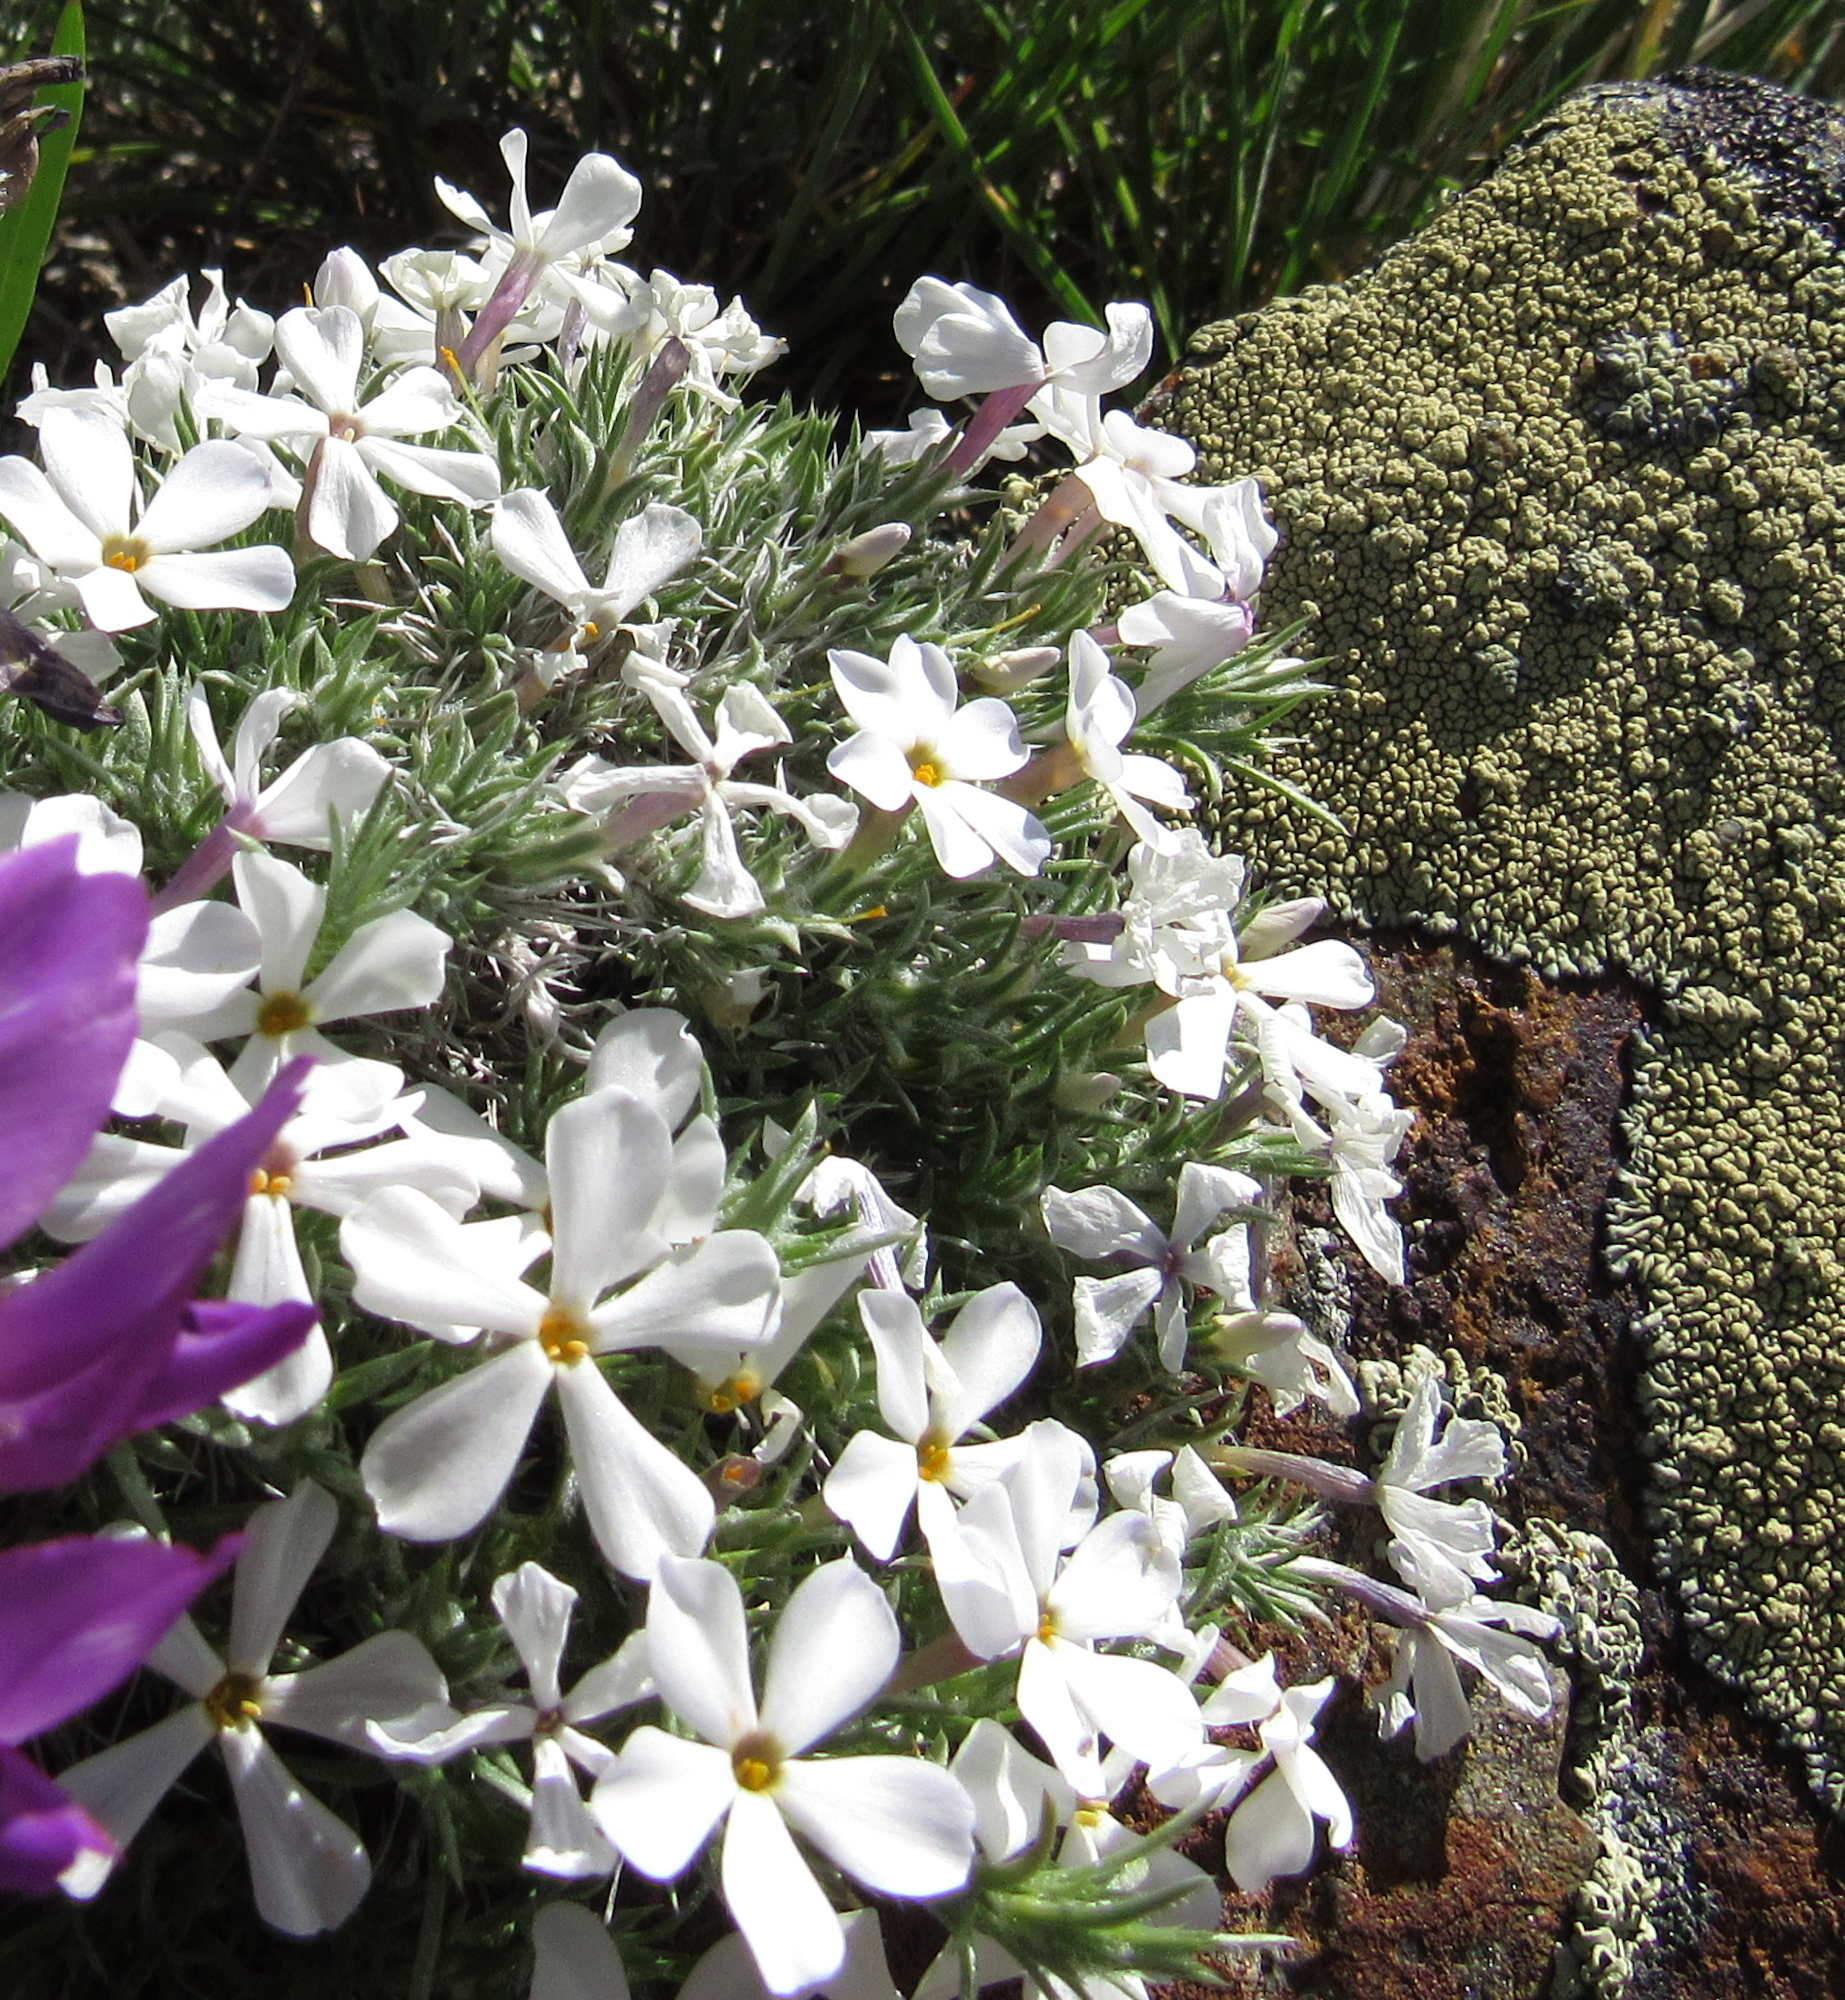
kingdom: Plantae
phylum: Tracheophyta
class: Magnoliopsida
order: Ericales
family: Polemoniaceae
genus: Phlox
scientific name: Phlox hoodii
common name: Moss phlox
